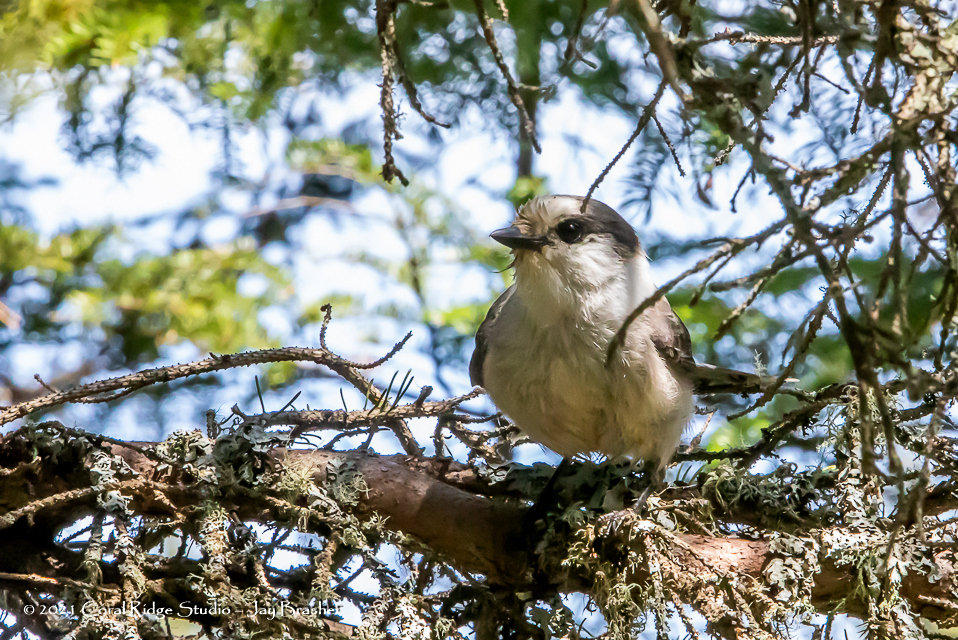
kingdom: Animalia
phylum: Chordata
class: Aves
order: Passeriformes
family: Corvidae
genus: Perisoreus
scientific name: Perisoreus canadensis
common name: Gray jay
